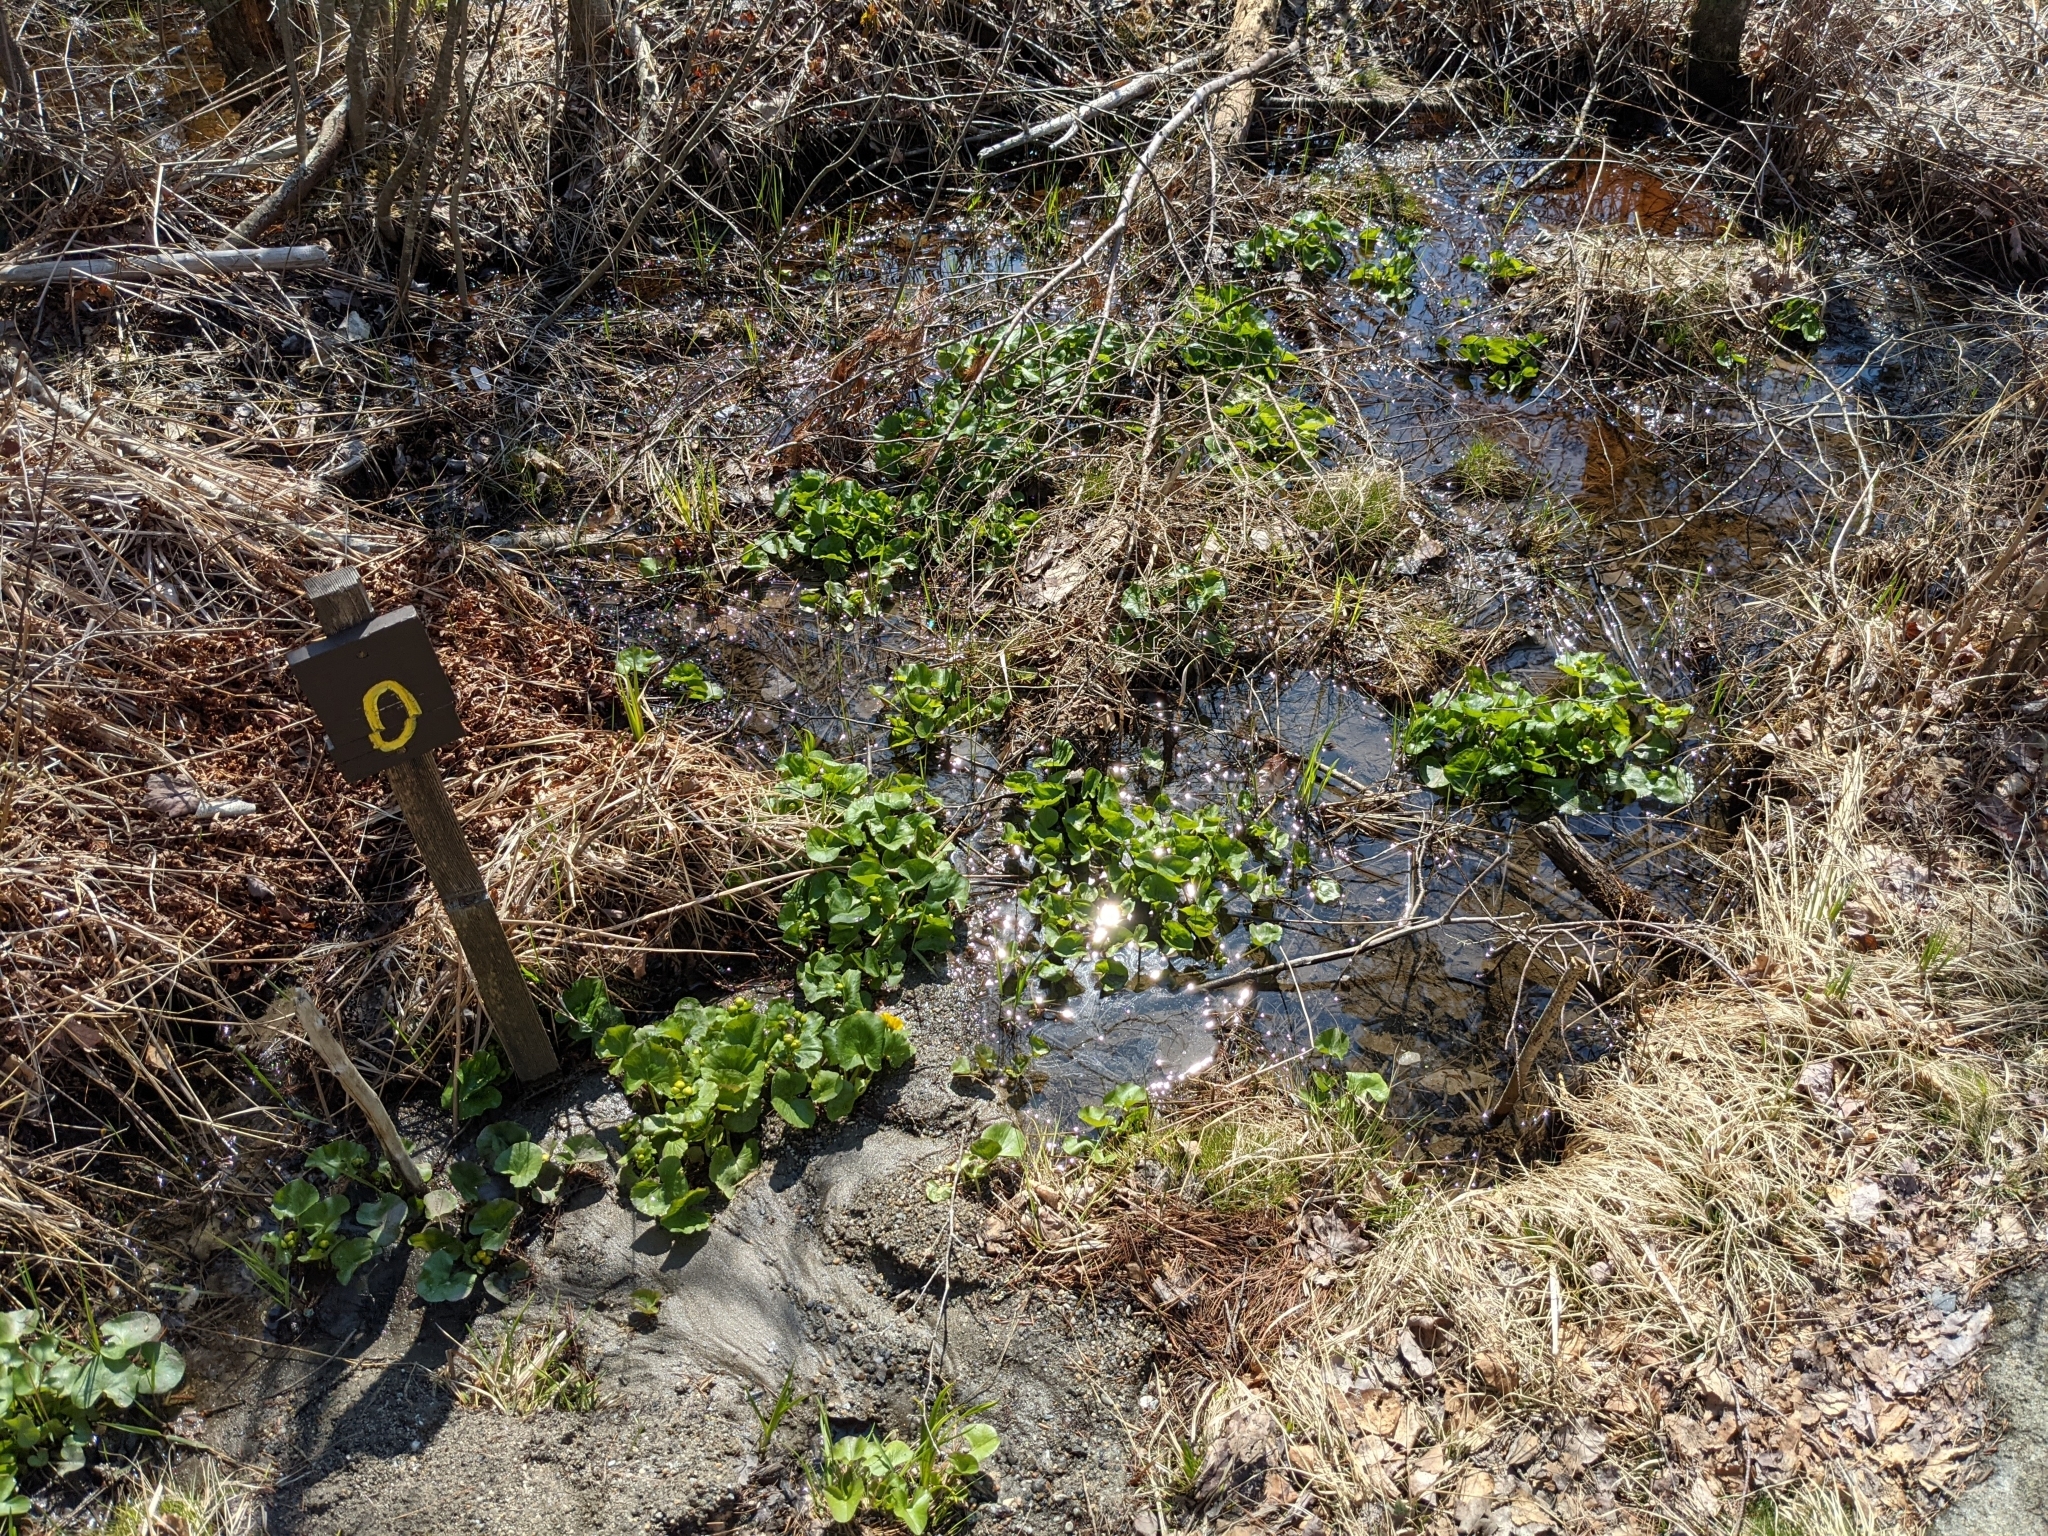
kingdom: Plantae
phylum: Tracheophyta
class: Magnoliopsida
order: Ranunculales
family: Ranunculaceae
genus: Caltha
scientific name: Caltha palustris
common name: Marsh marigold
